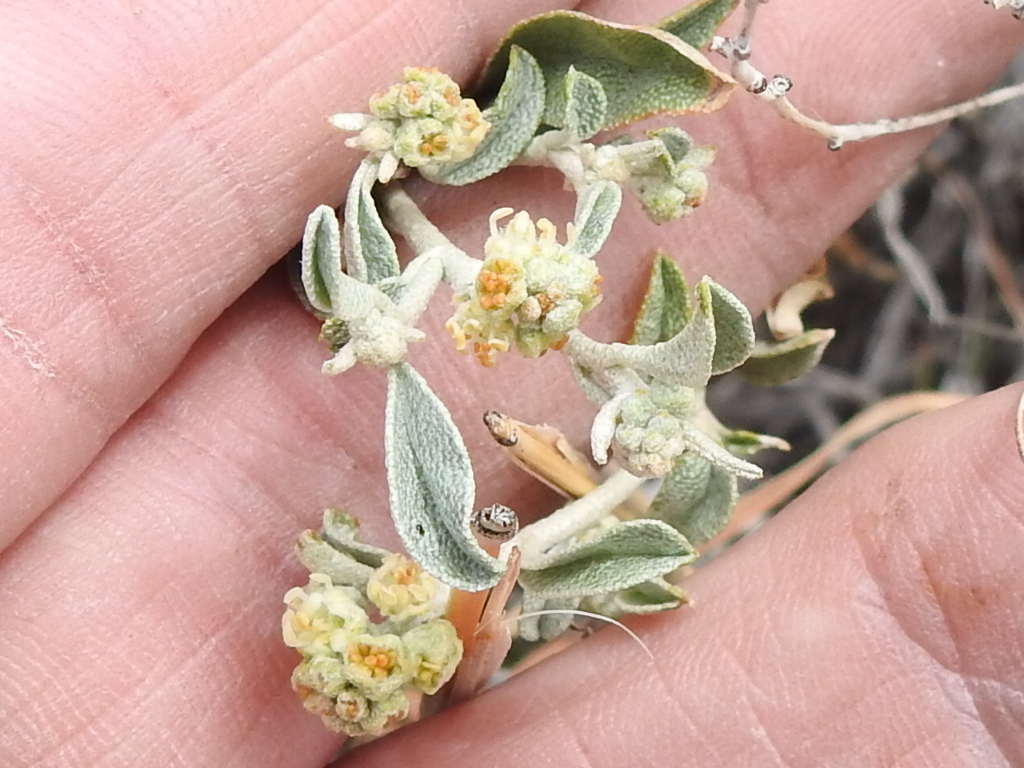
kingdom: Plantae
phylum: Tracheophyta
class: Magnoliopsida
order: Malpighiales
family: Euphorbiaceae
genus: Croton
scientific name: Croton dioicus
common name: Grassland croton
